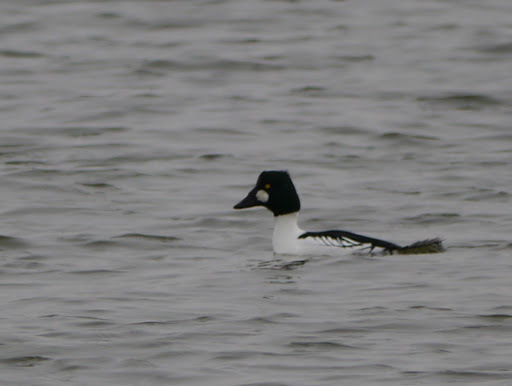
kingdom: Animalia
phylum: Chordata
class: Aves
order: Anseriformes
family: Anatidae
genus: Bucephala
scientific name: Bucephala clangula
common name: Common goldeneye
